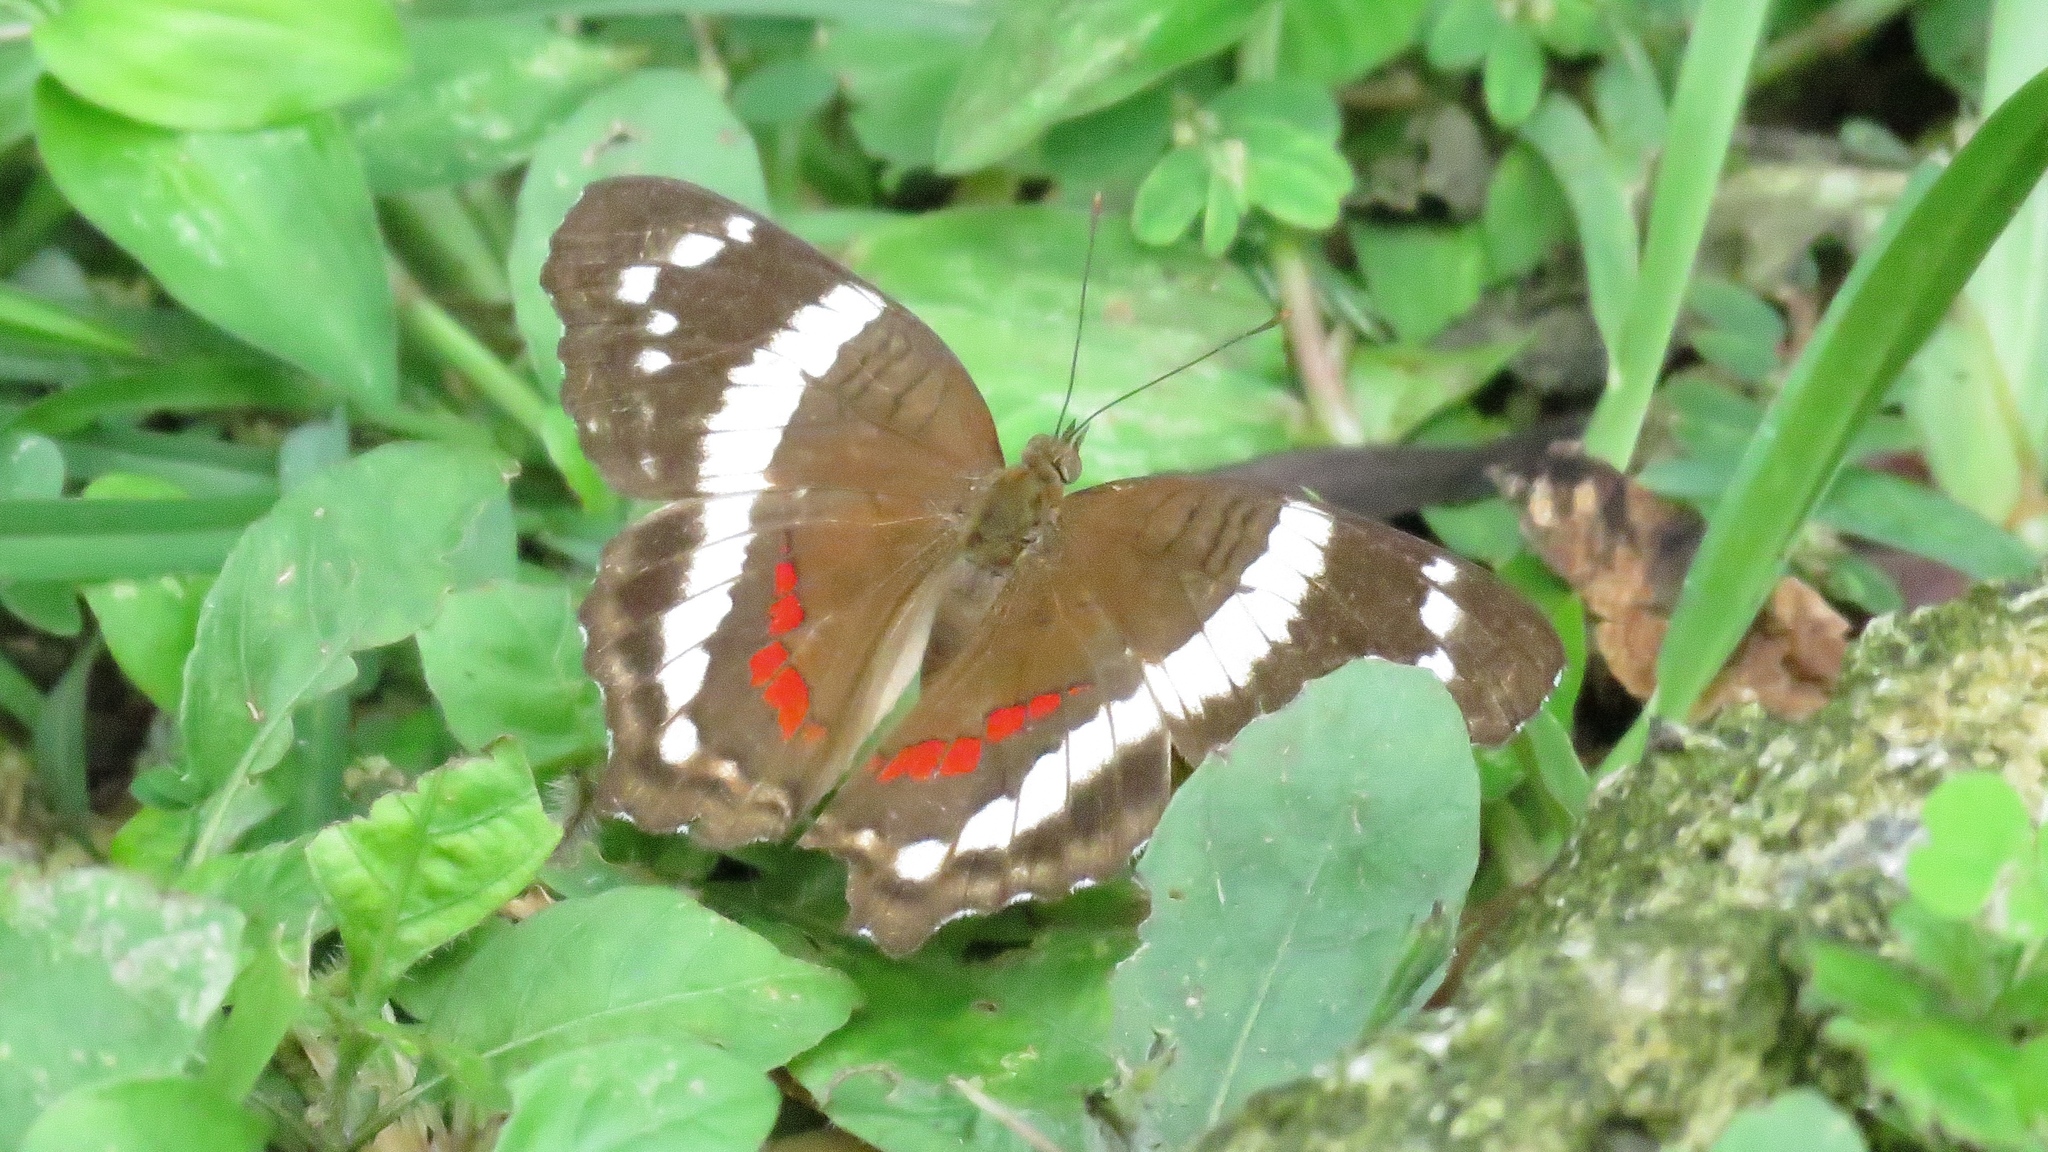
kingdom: Animalia
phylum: Arthropoda
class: Insecta
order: Lepidoptera
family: Nymphalidae
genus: Anartia
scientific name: Anartia fatima
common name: Banded peacock
